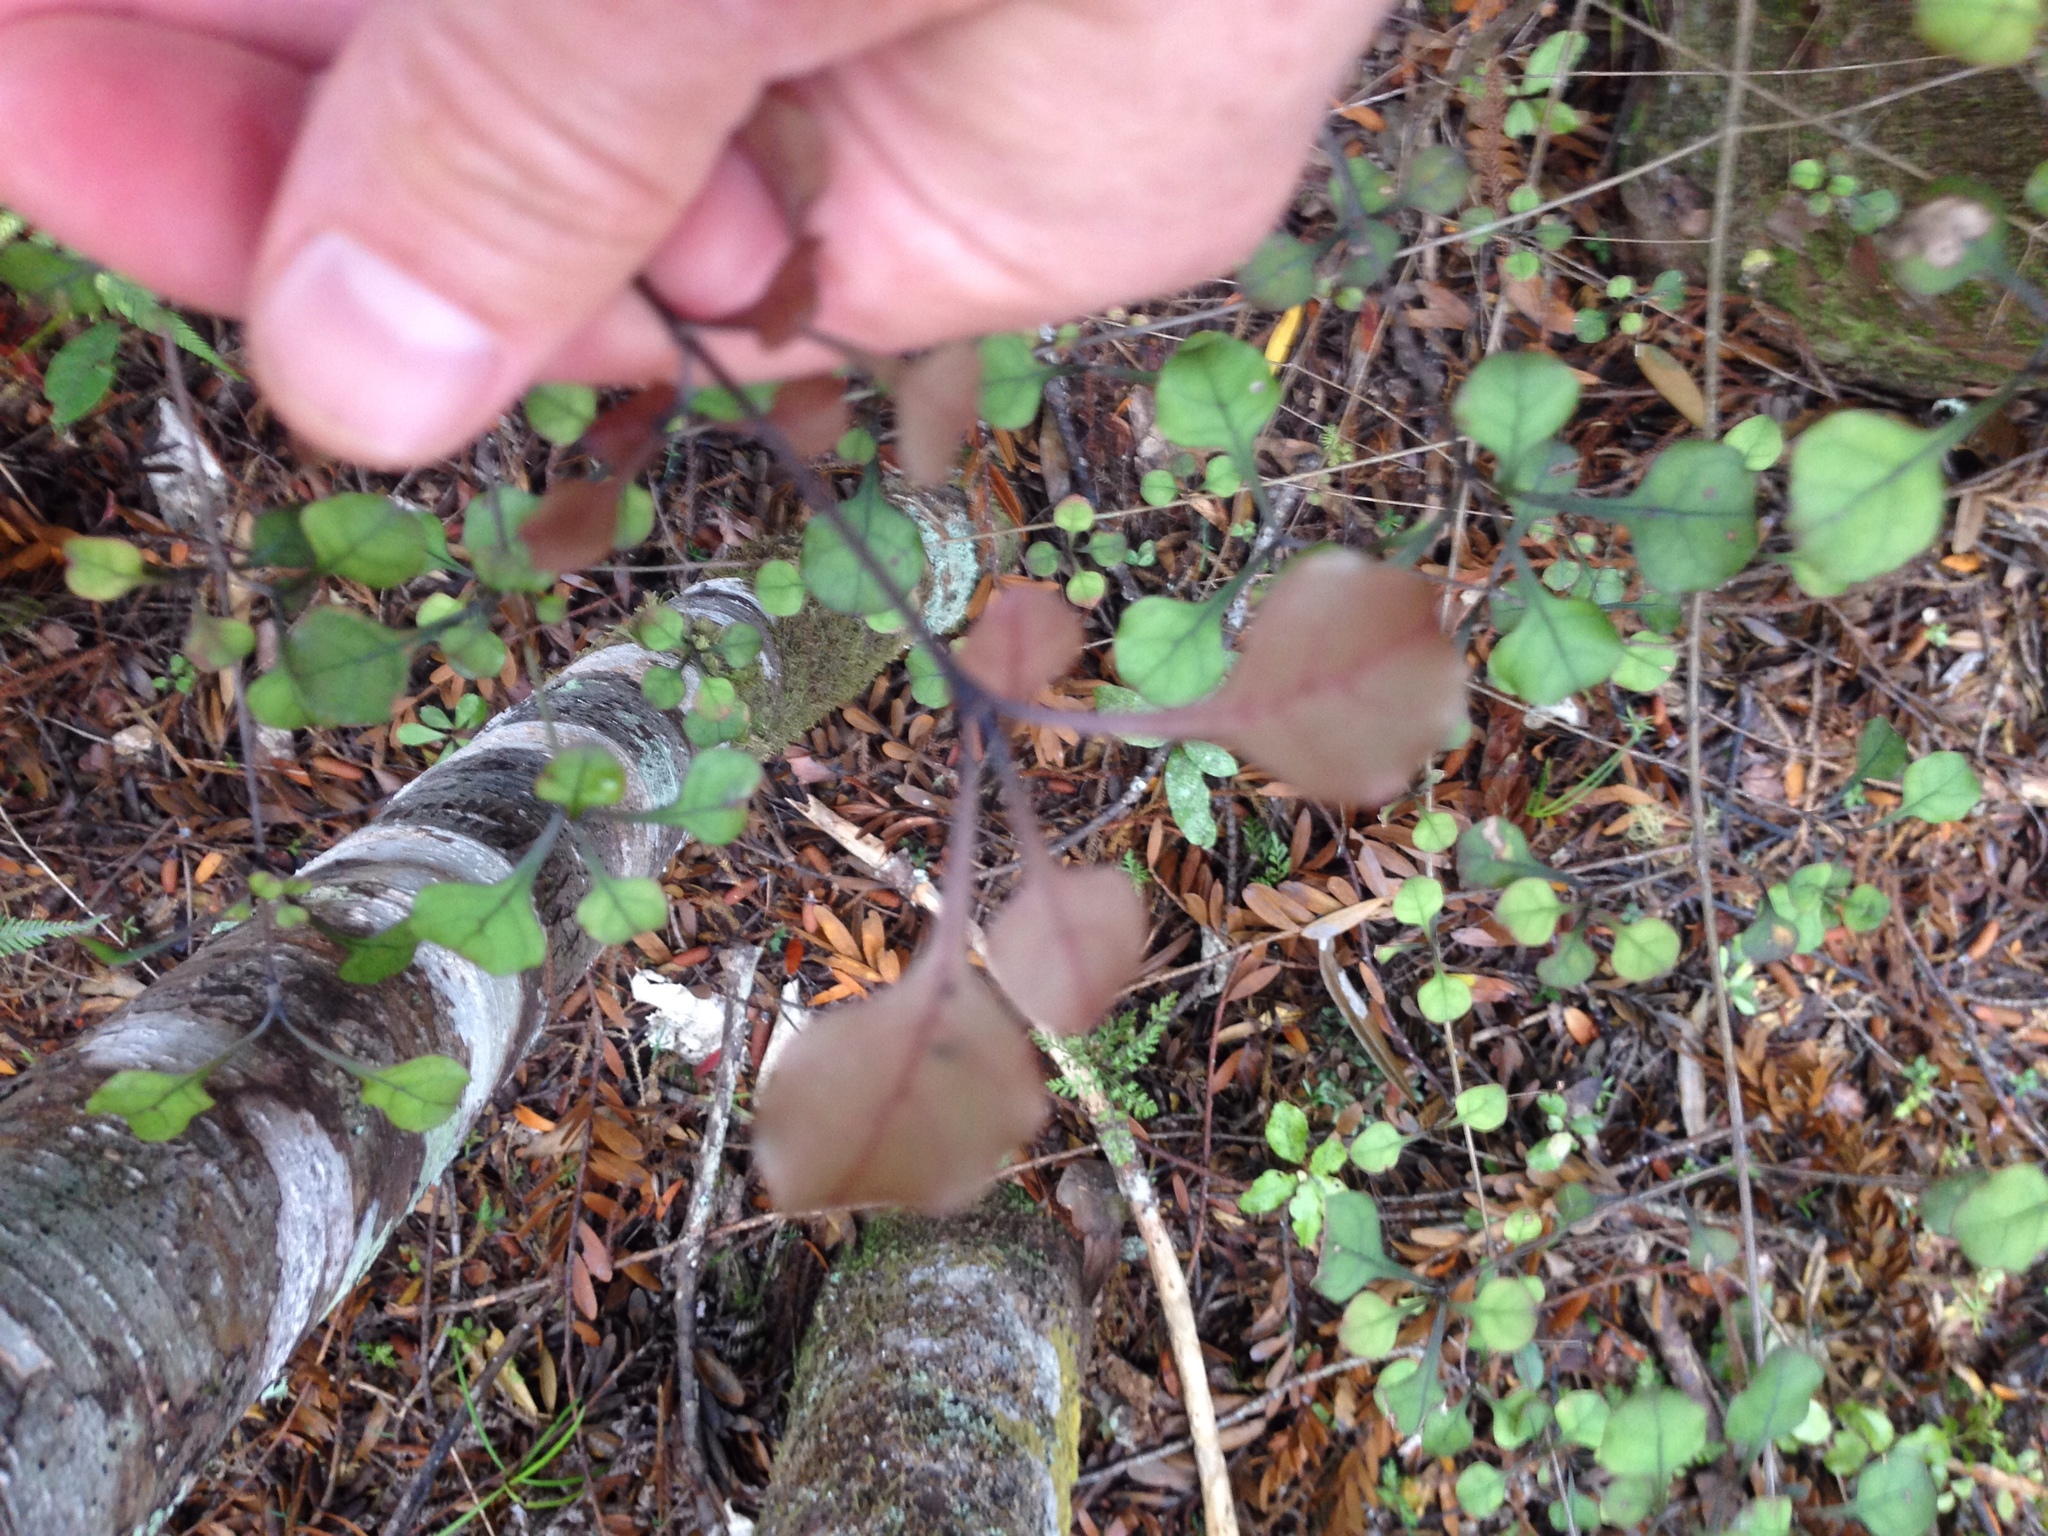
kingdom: Plantae
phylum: Tracheophyta
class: Magnoliopsida
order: Gentianales
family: Rubiaceae
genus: Coprosma
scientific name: Coprosma arborea
